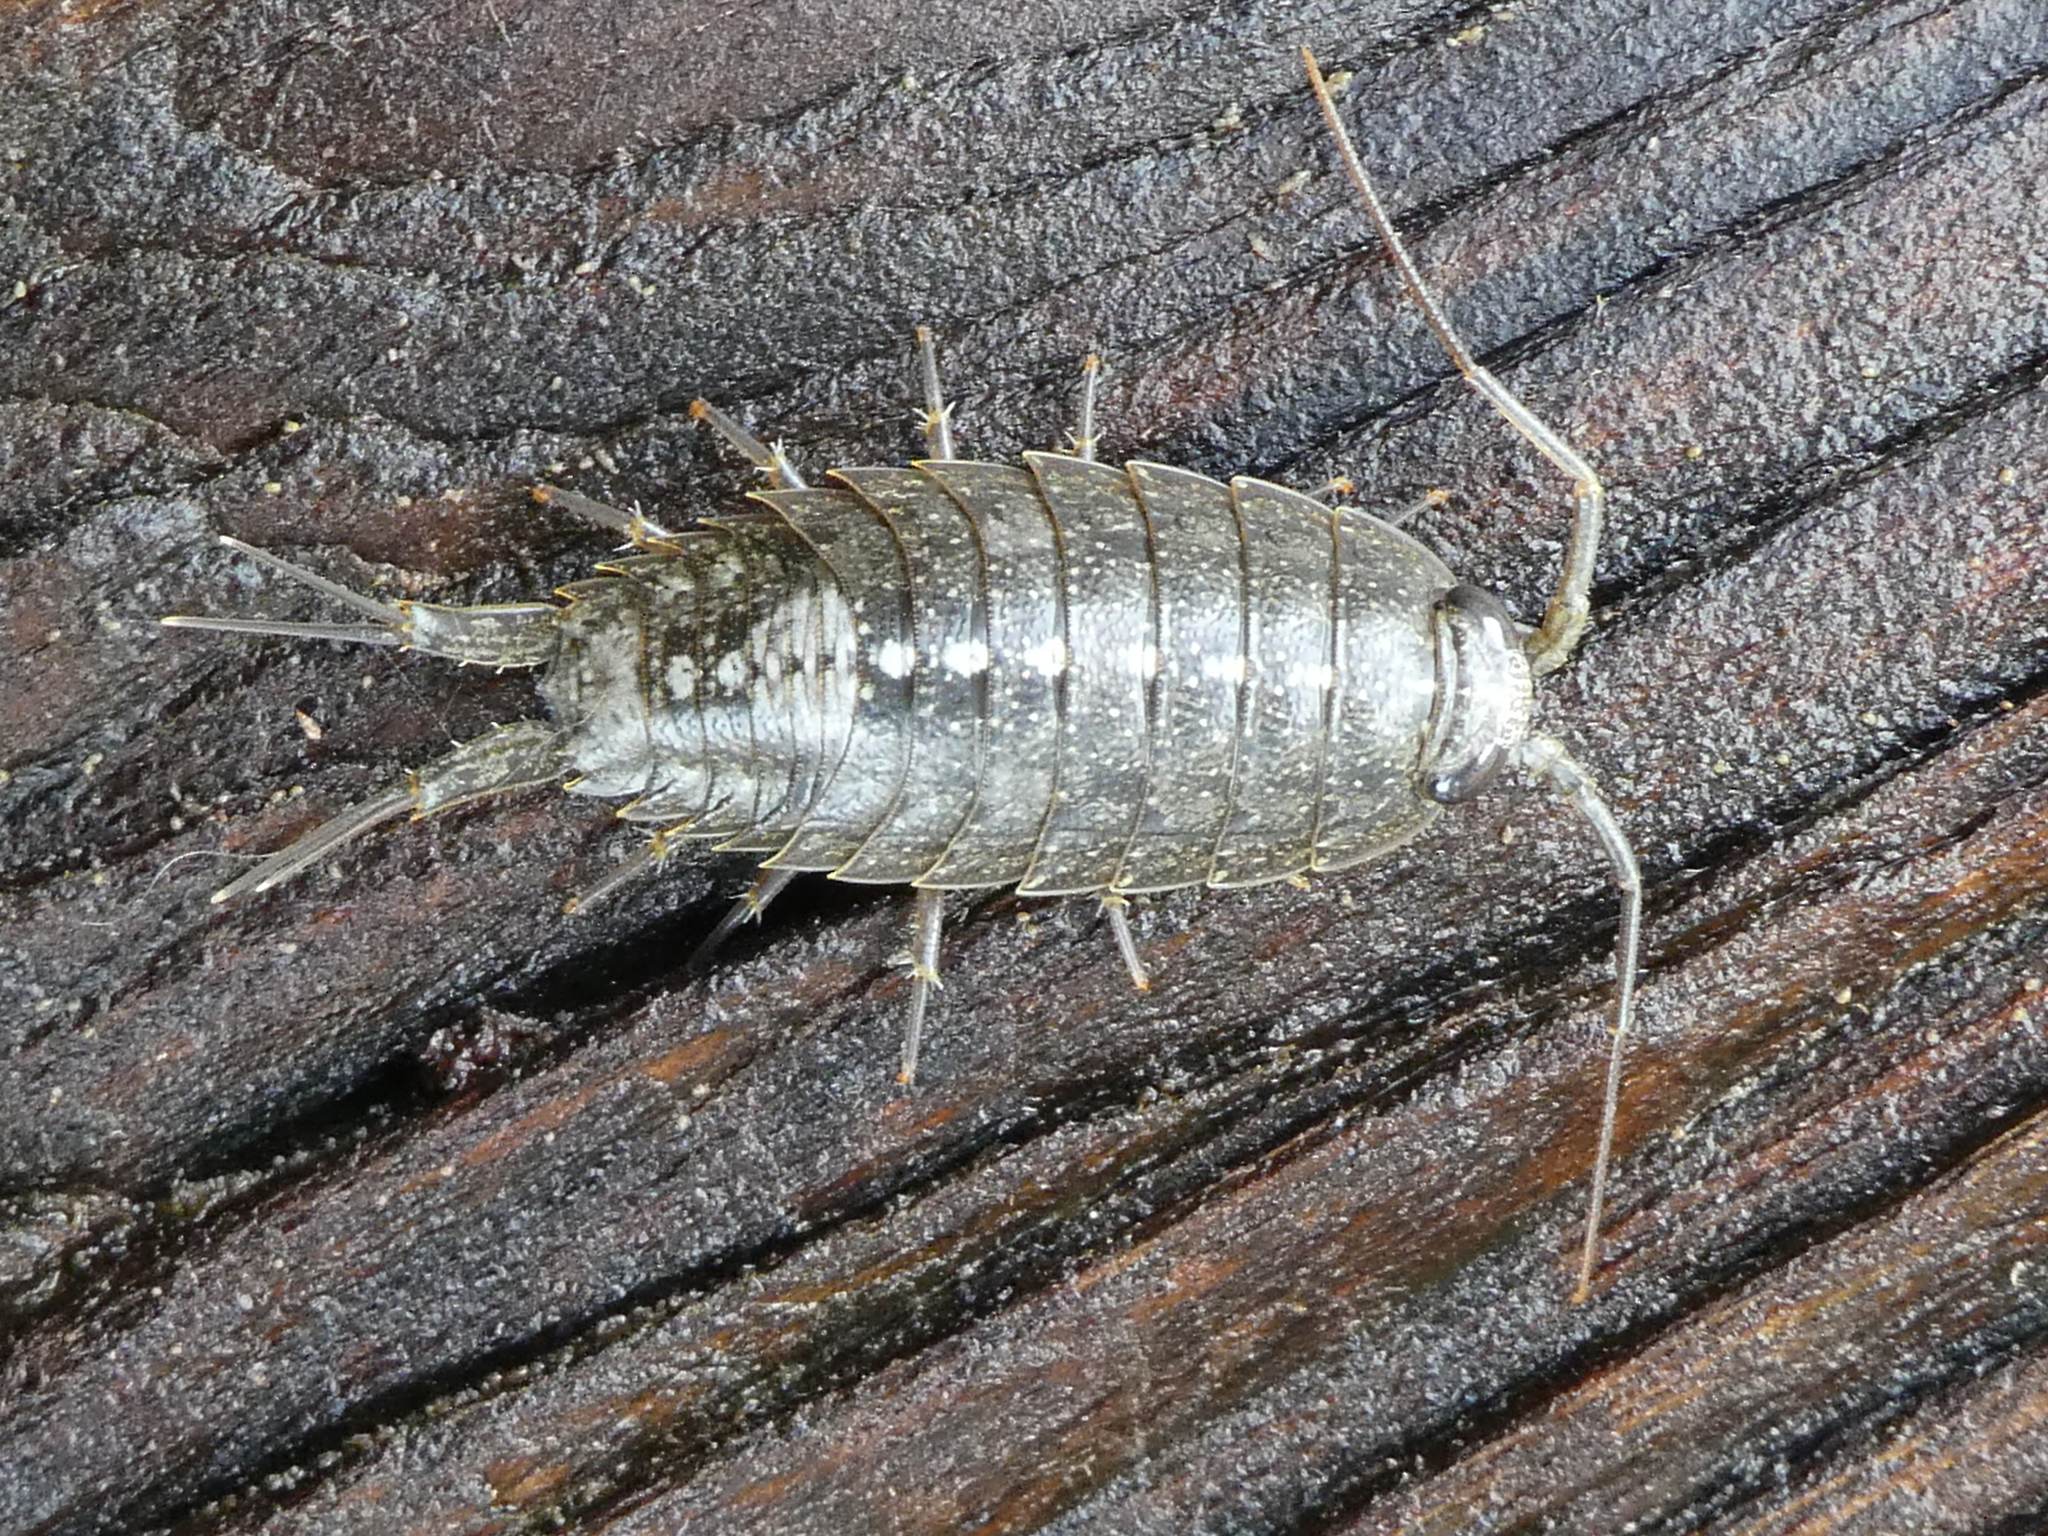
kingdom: Animalia
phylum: Arthropoda
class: Malacostraca
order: Isopoda
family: Ligiidae
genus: Ligia
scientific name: Ligia occidentalis
